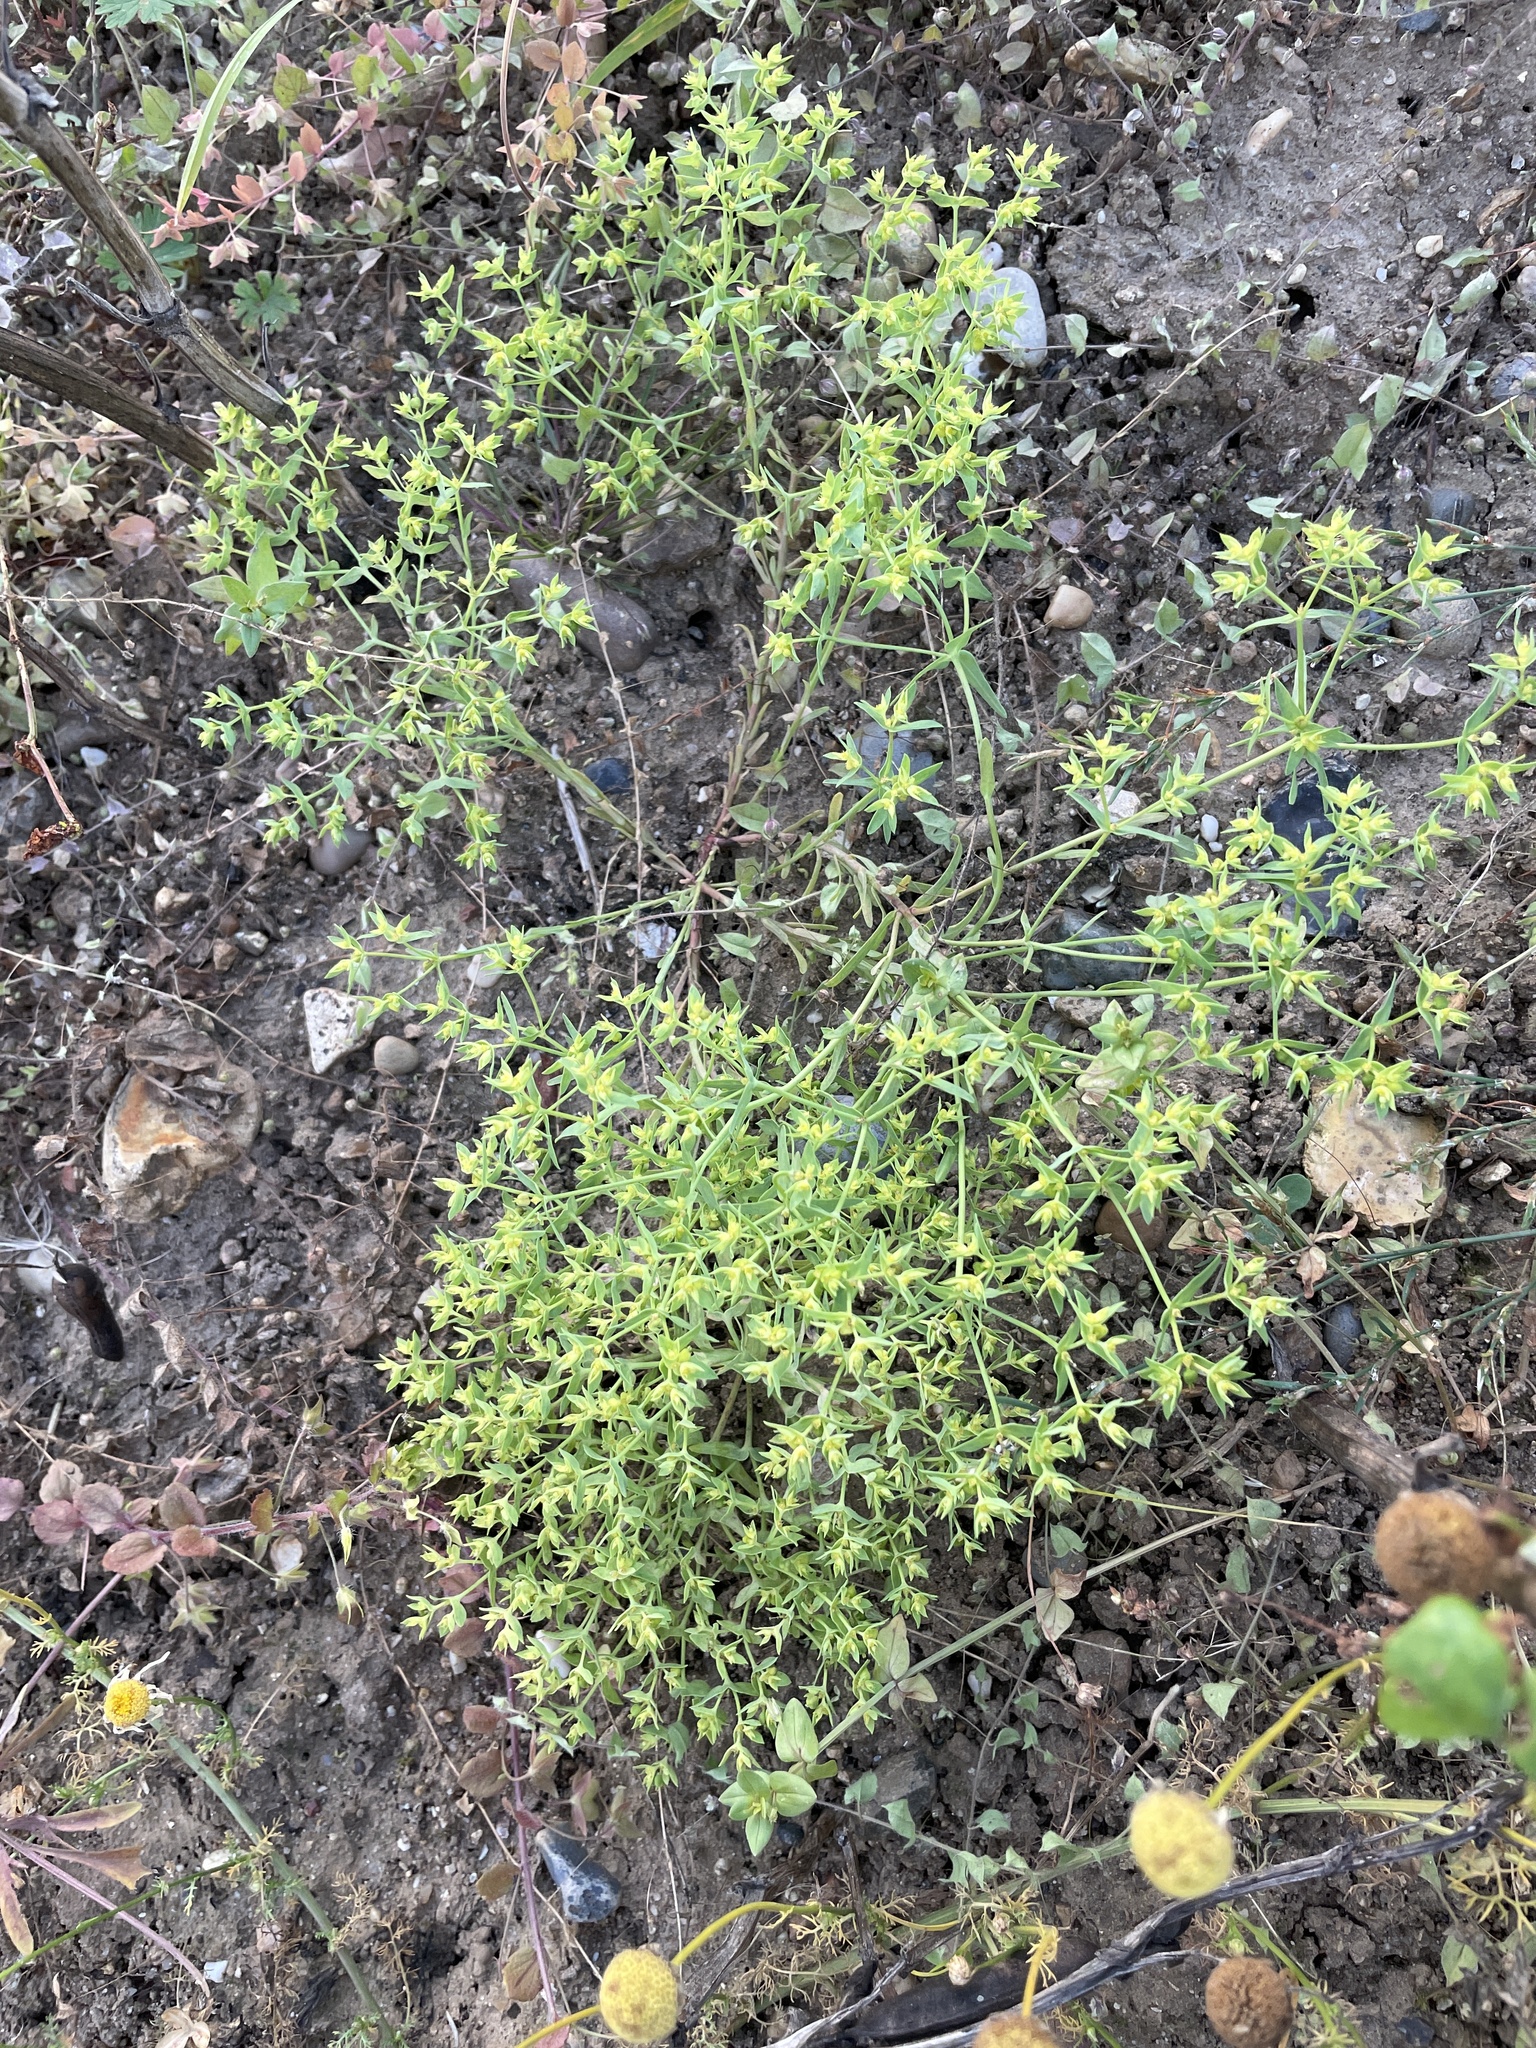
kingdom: Plantae
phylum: Tracheophyta
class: Magnoliopsida
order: Malpighiales
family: Euphorbiaceae
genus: Euphorbia
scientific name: Euphorbia exigua
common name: Dwarf spurge
